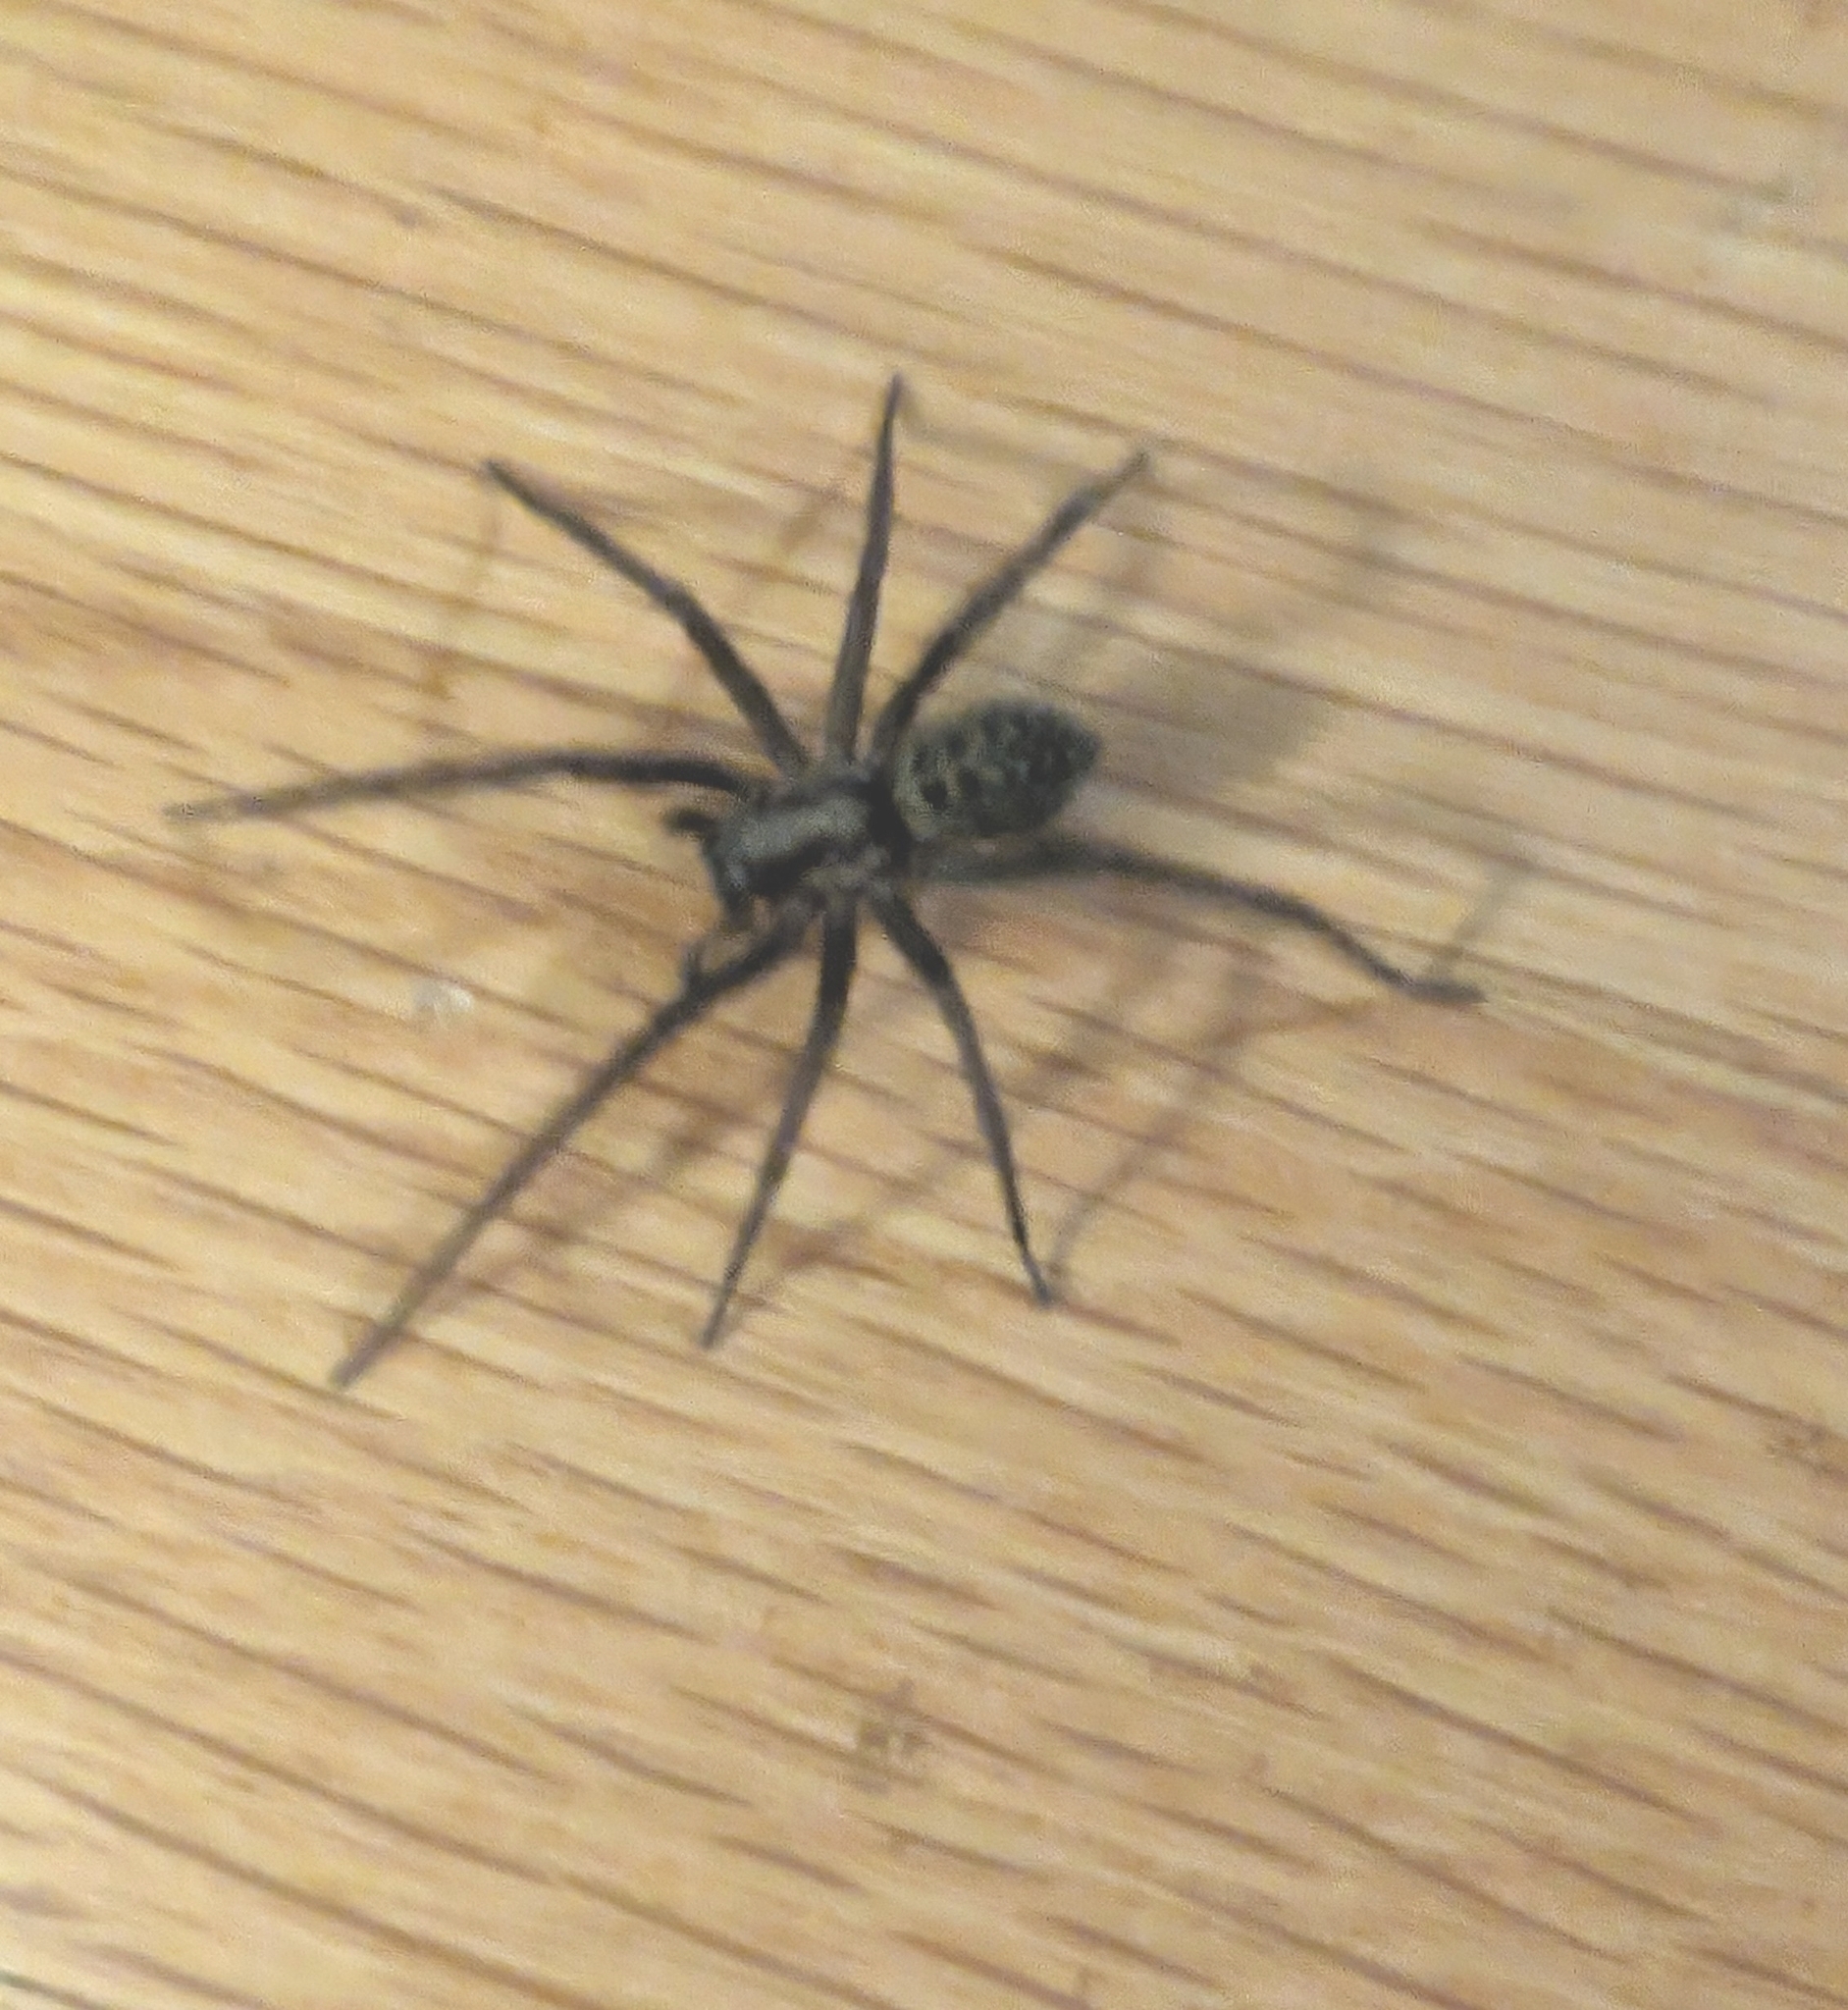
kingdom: Animalia
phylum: Arthropoda
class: Arachnida
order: Araneae
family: Agelenidae
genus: Eratigena
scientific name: Eratigena duellica
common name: Giant house spider
